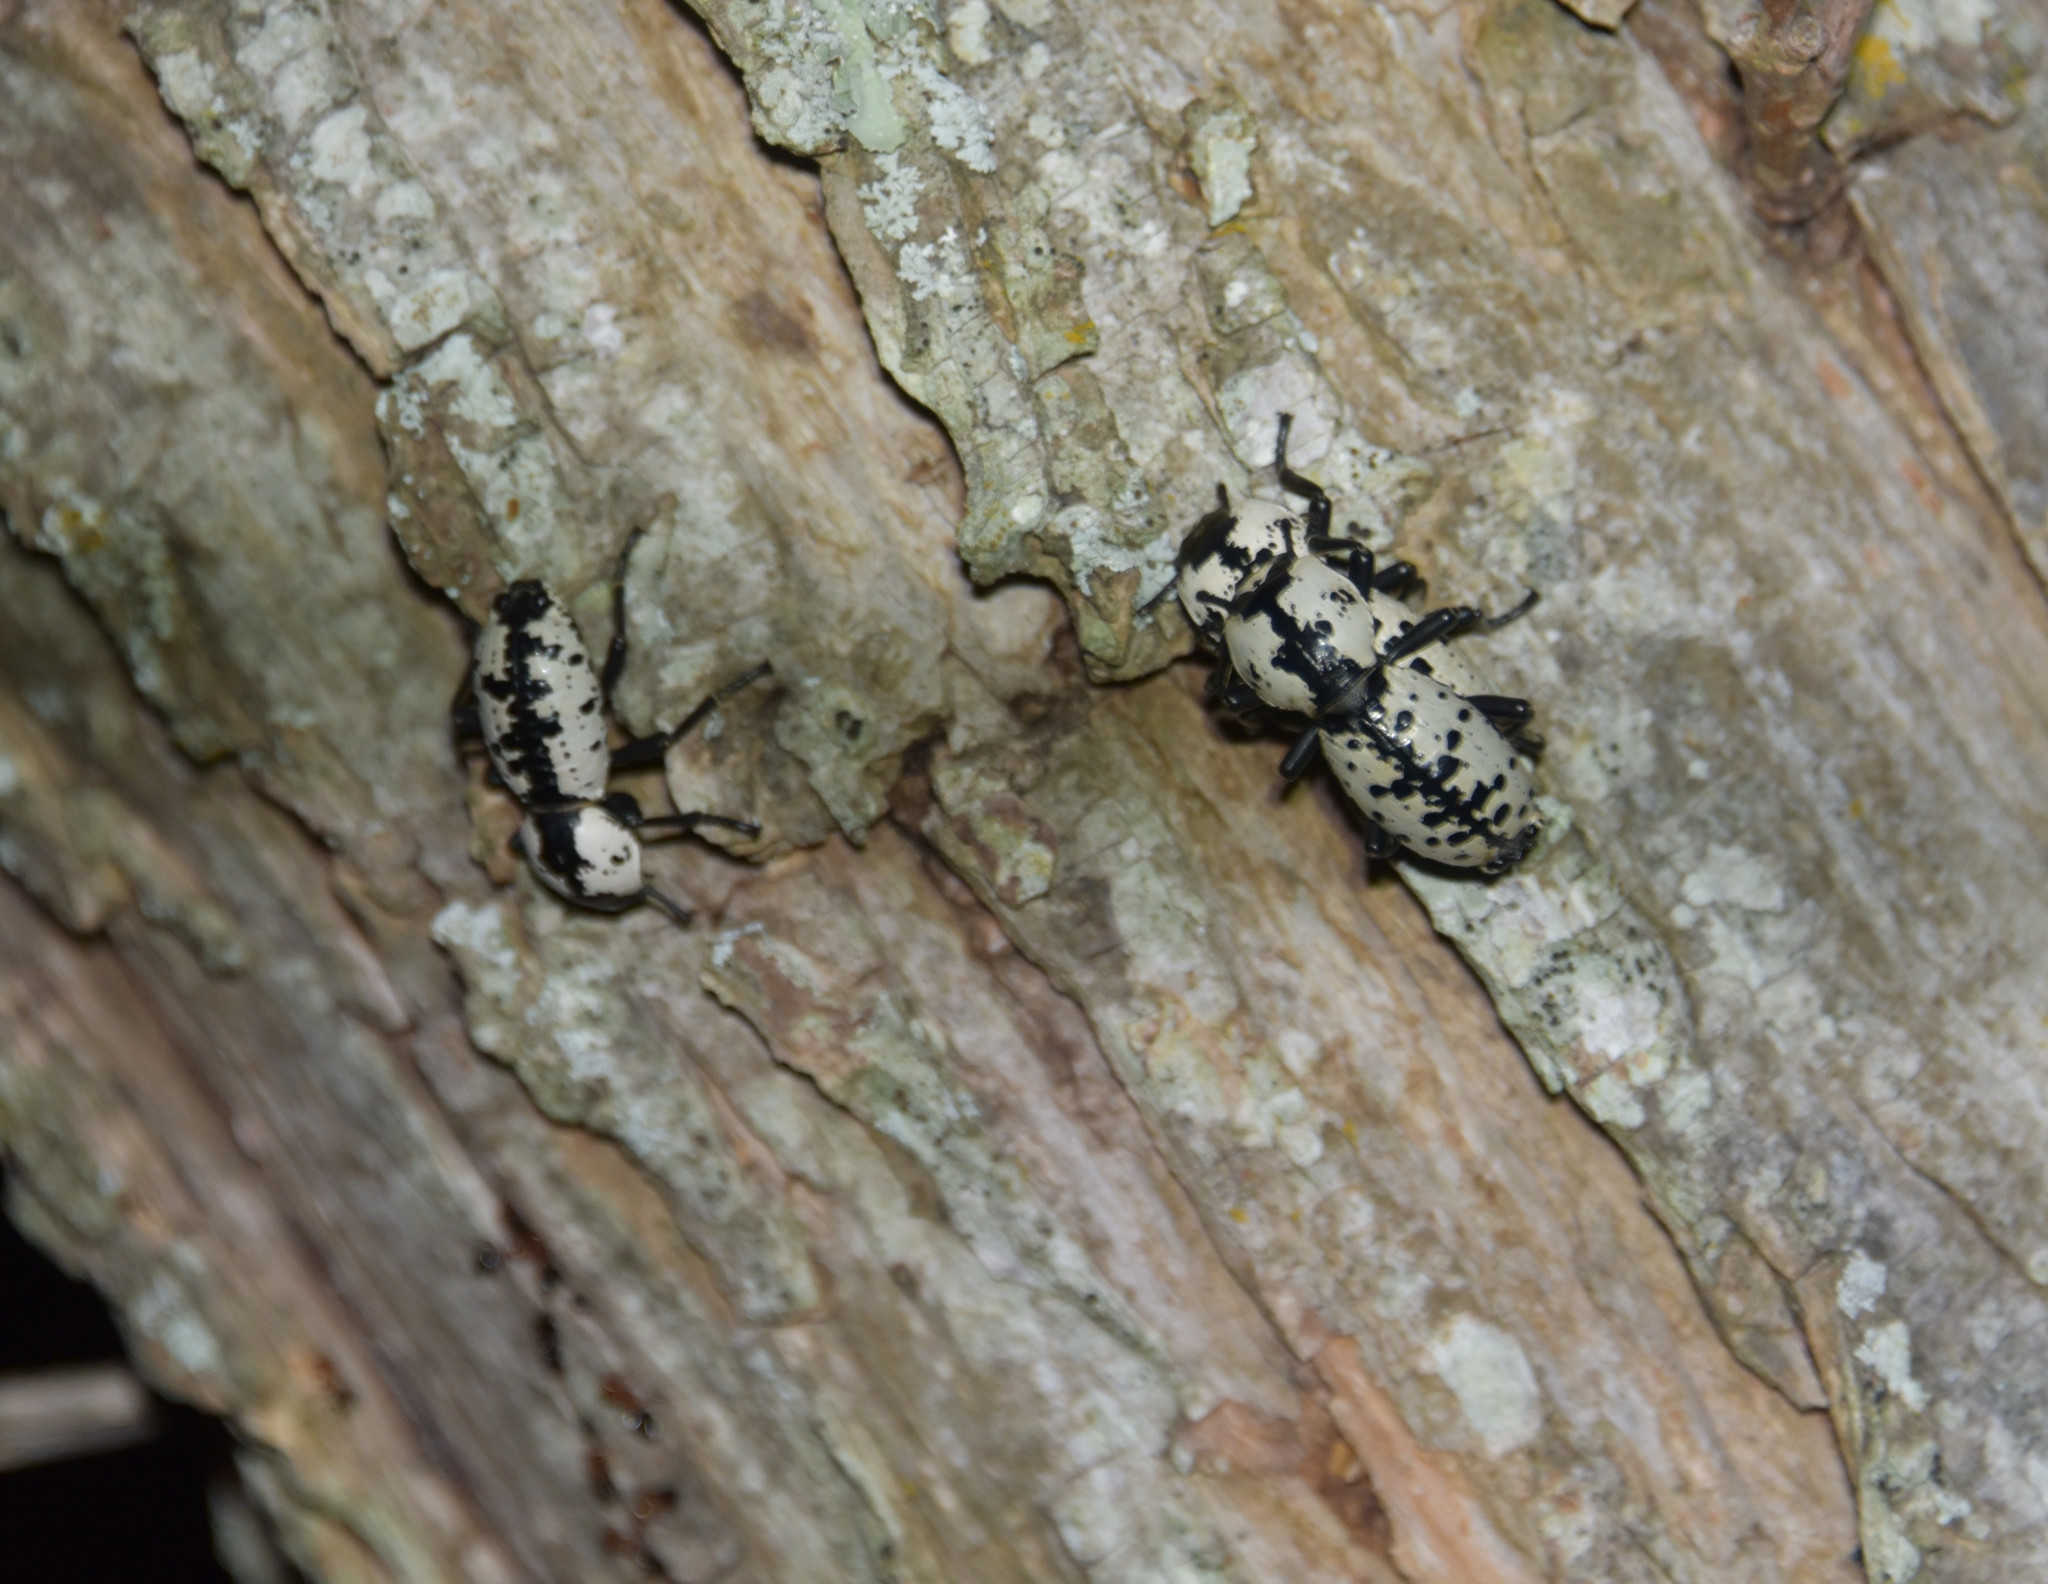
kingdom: Animalia
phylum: Arthropoda
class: Insecta
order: Coleoptera
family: Zopheridae
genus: Zopherus
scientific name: Zopherus nodulosus
